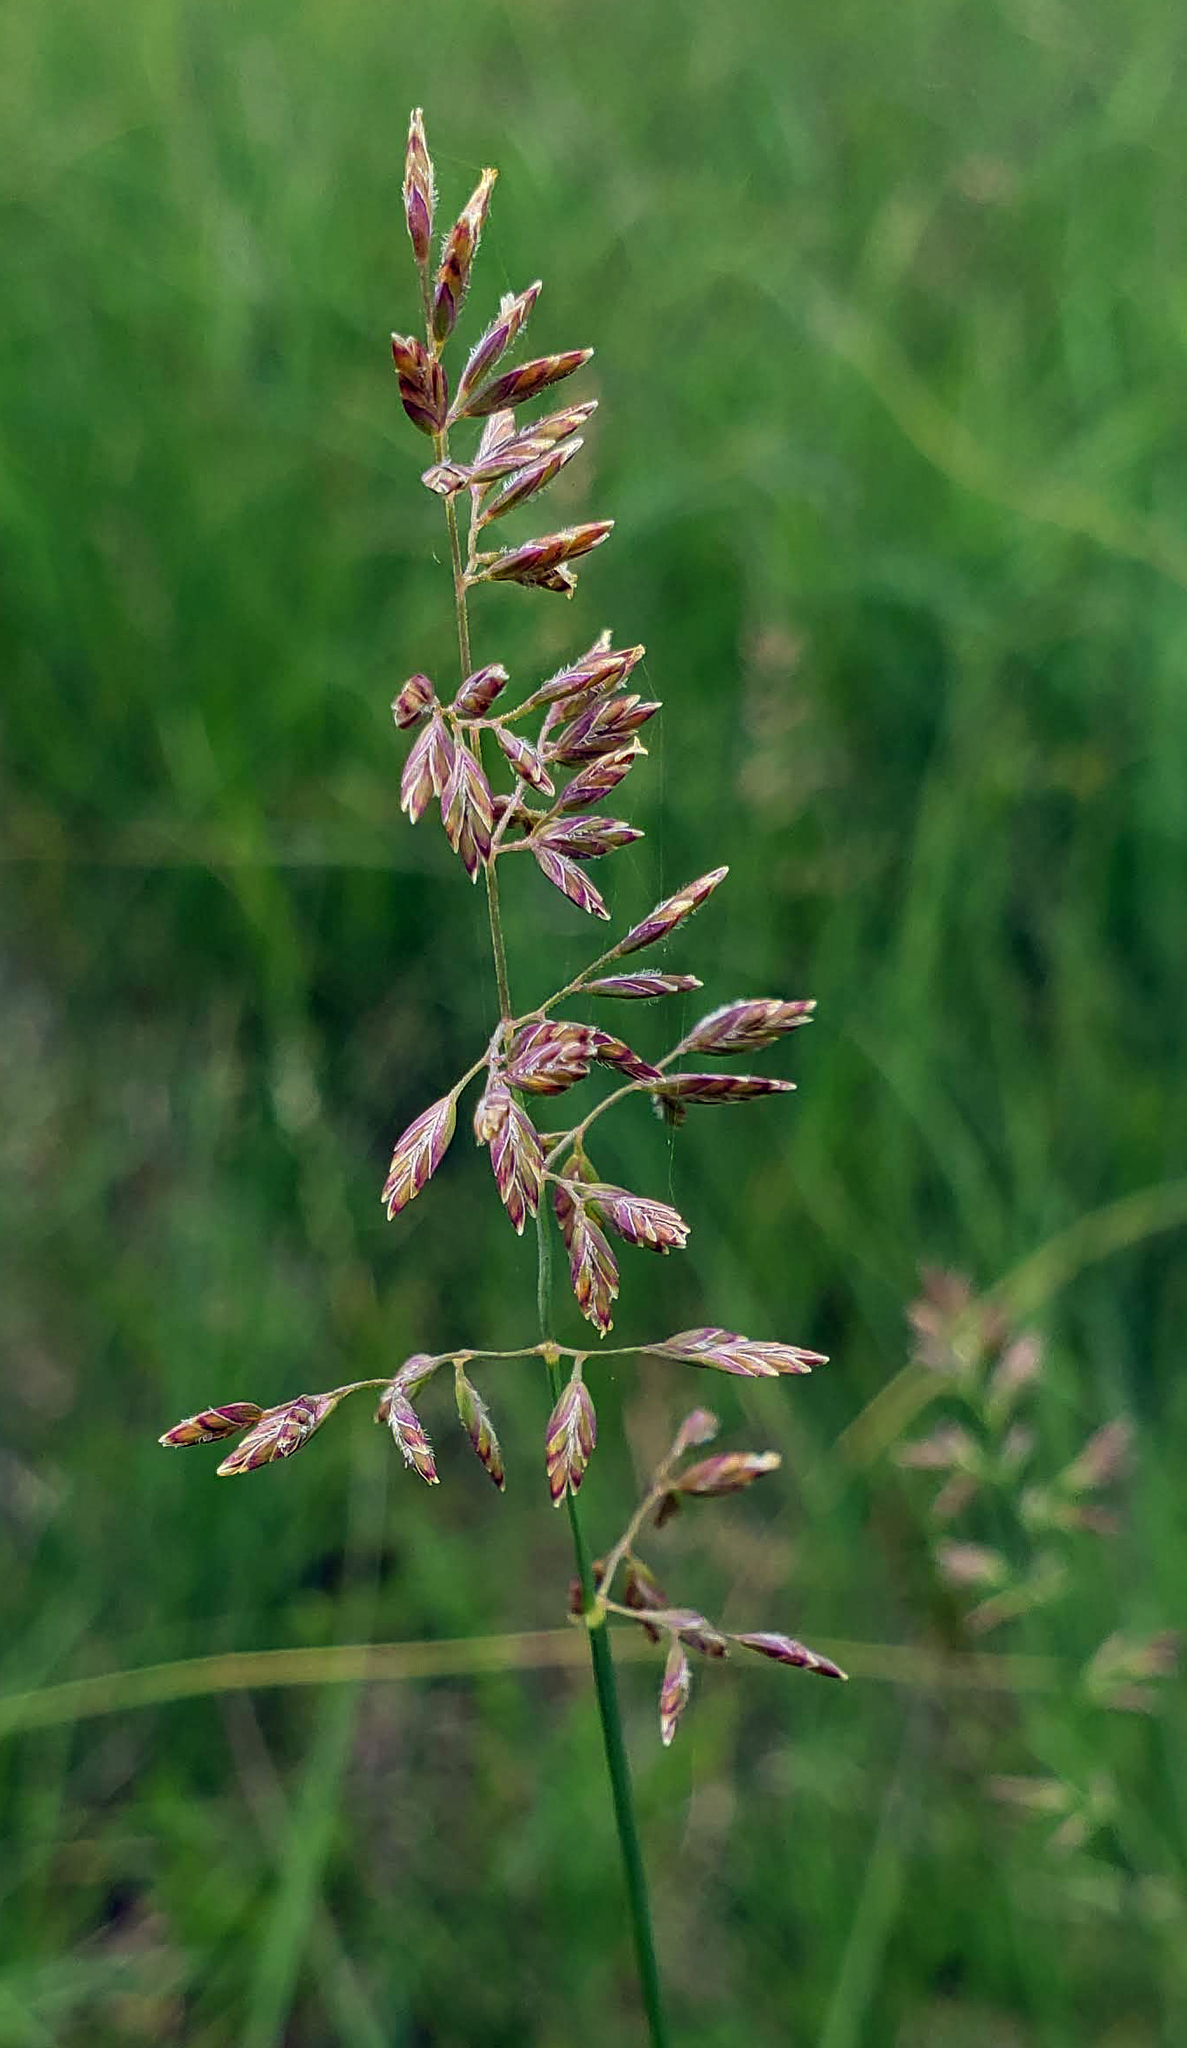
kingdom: Plantae
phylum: Tracheophyta
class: Liliopsida
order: Poales
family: Poaceae
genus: Poa
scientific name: Poa compressa
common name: Canada bluegrass
